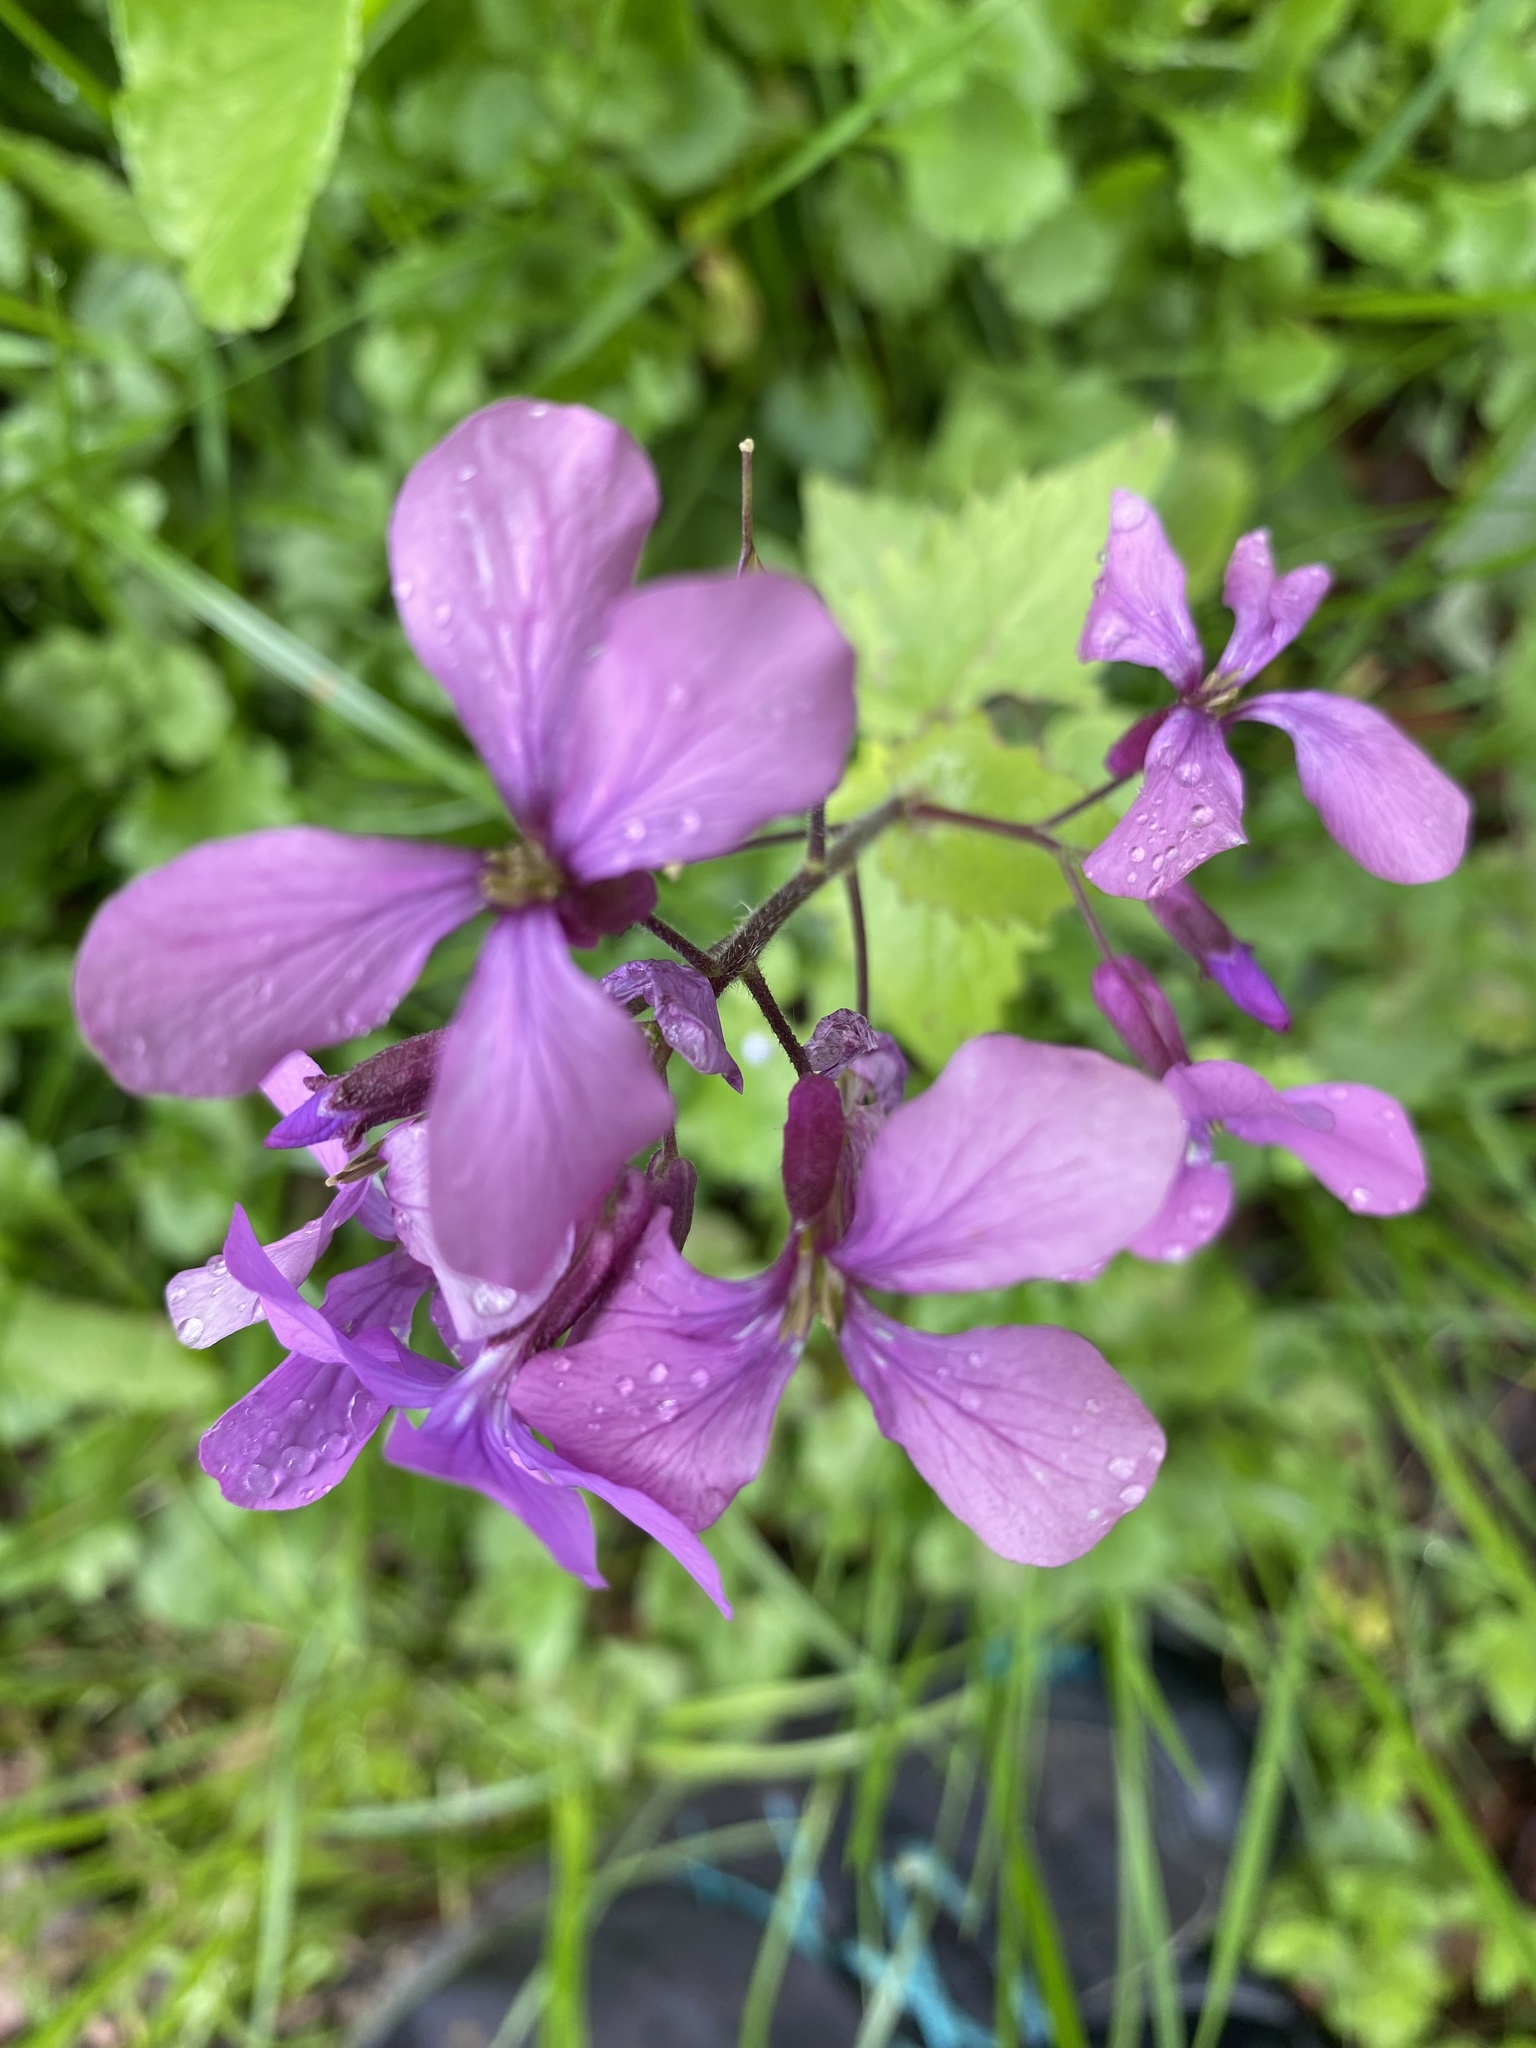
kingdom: Plantae
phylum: Tracheophyta
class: Magnoliopsida
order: Brassicales
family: Brassicaceae
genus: Lunaria
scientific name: Lunaria annua
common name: Honesty
